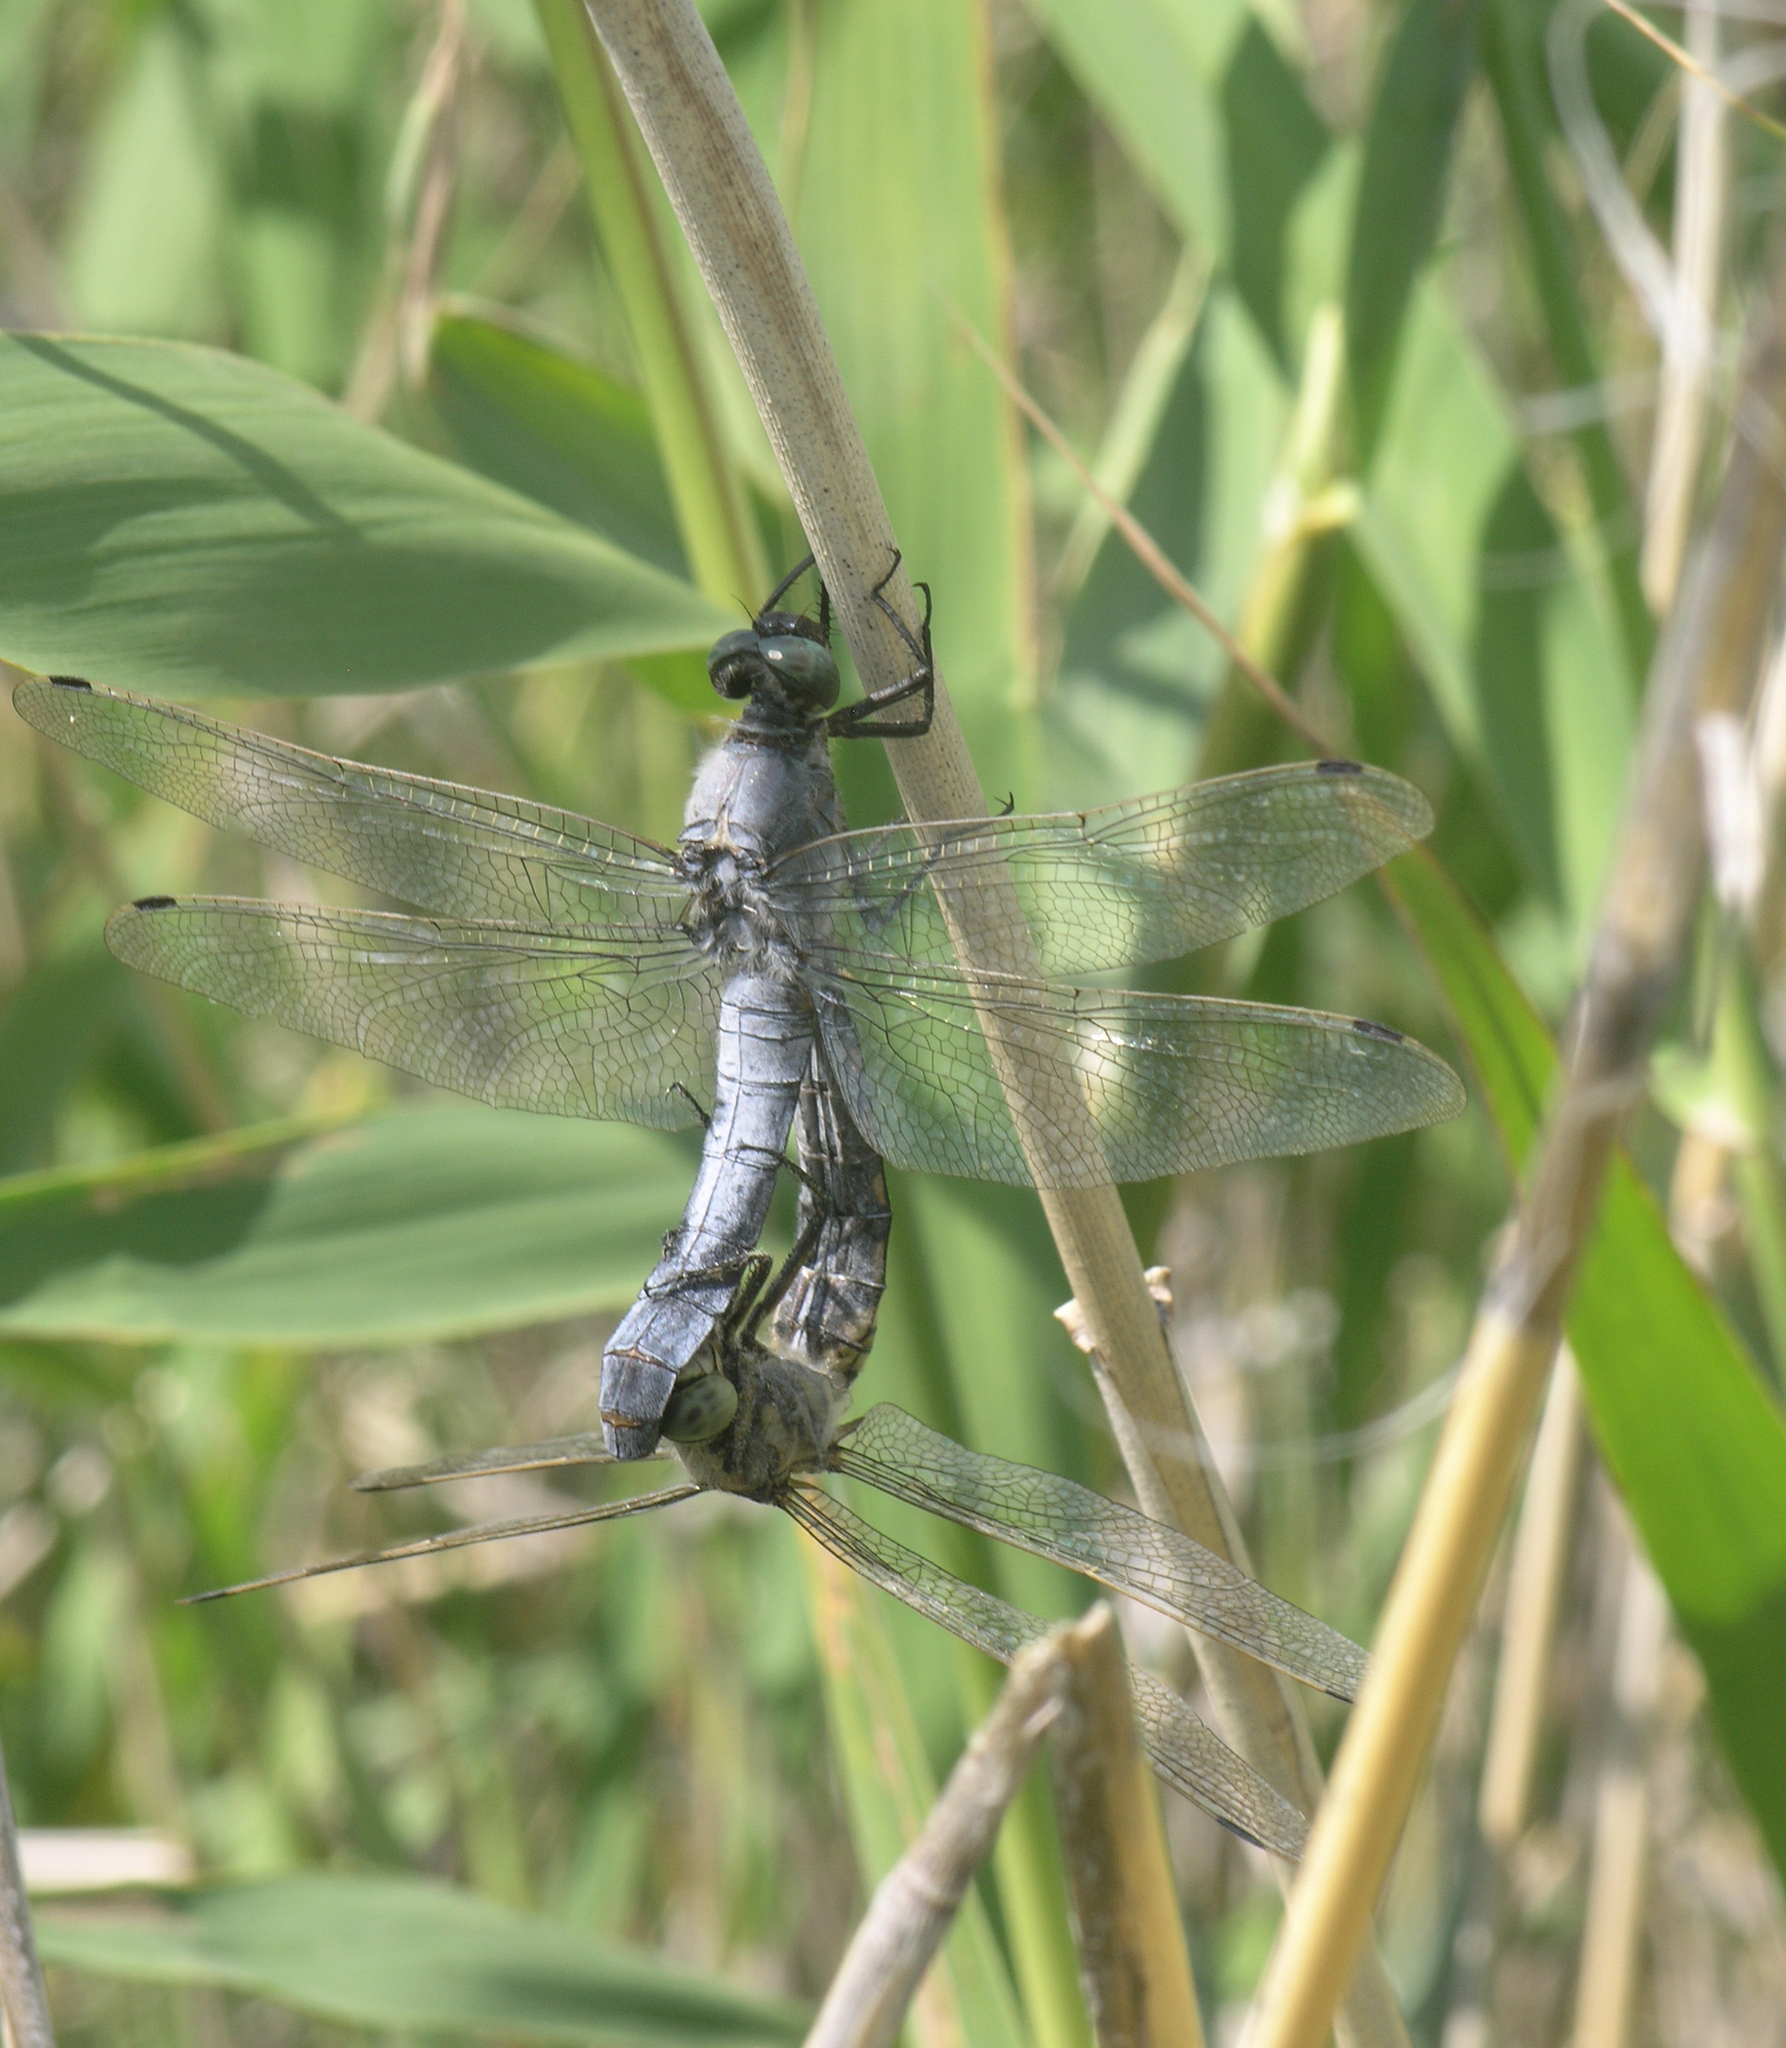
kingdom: Animalia
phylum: Arthropoda
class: Insecta
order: Odonata
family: Libellulidae
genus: Orthetrum
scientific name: Orthetrum cancellatum
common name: Black-tailed skimmer
